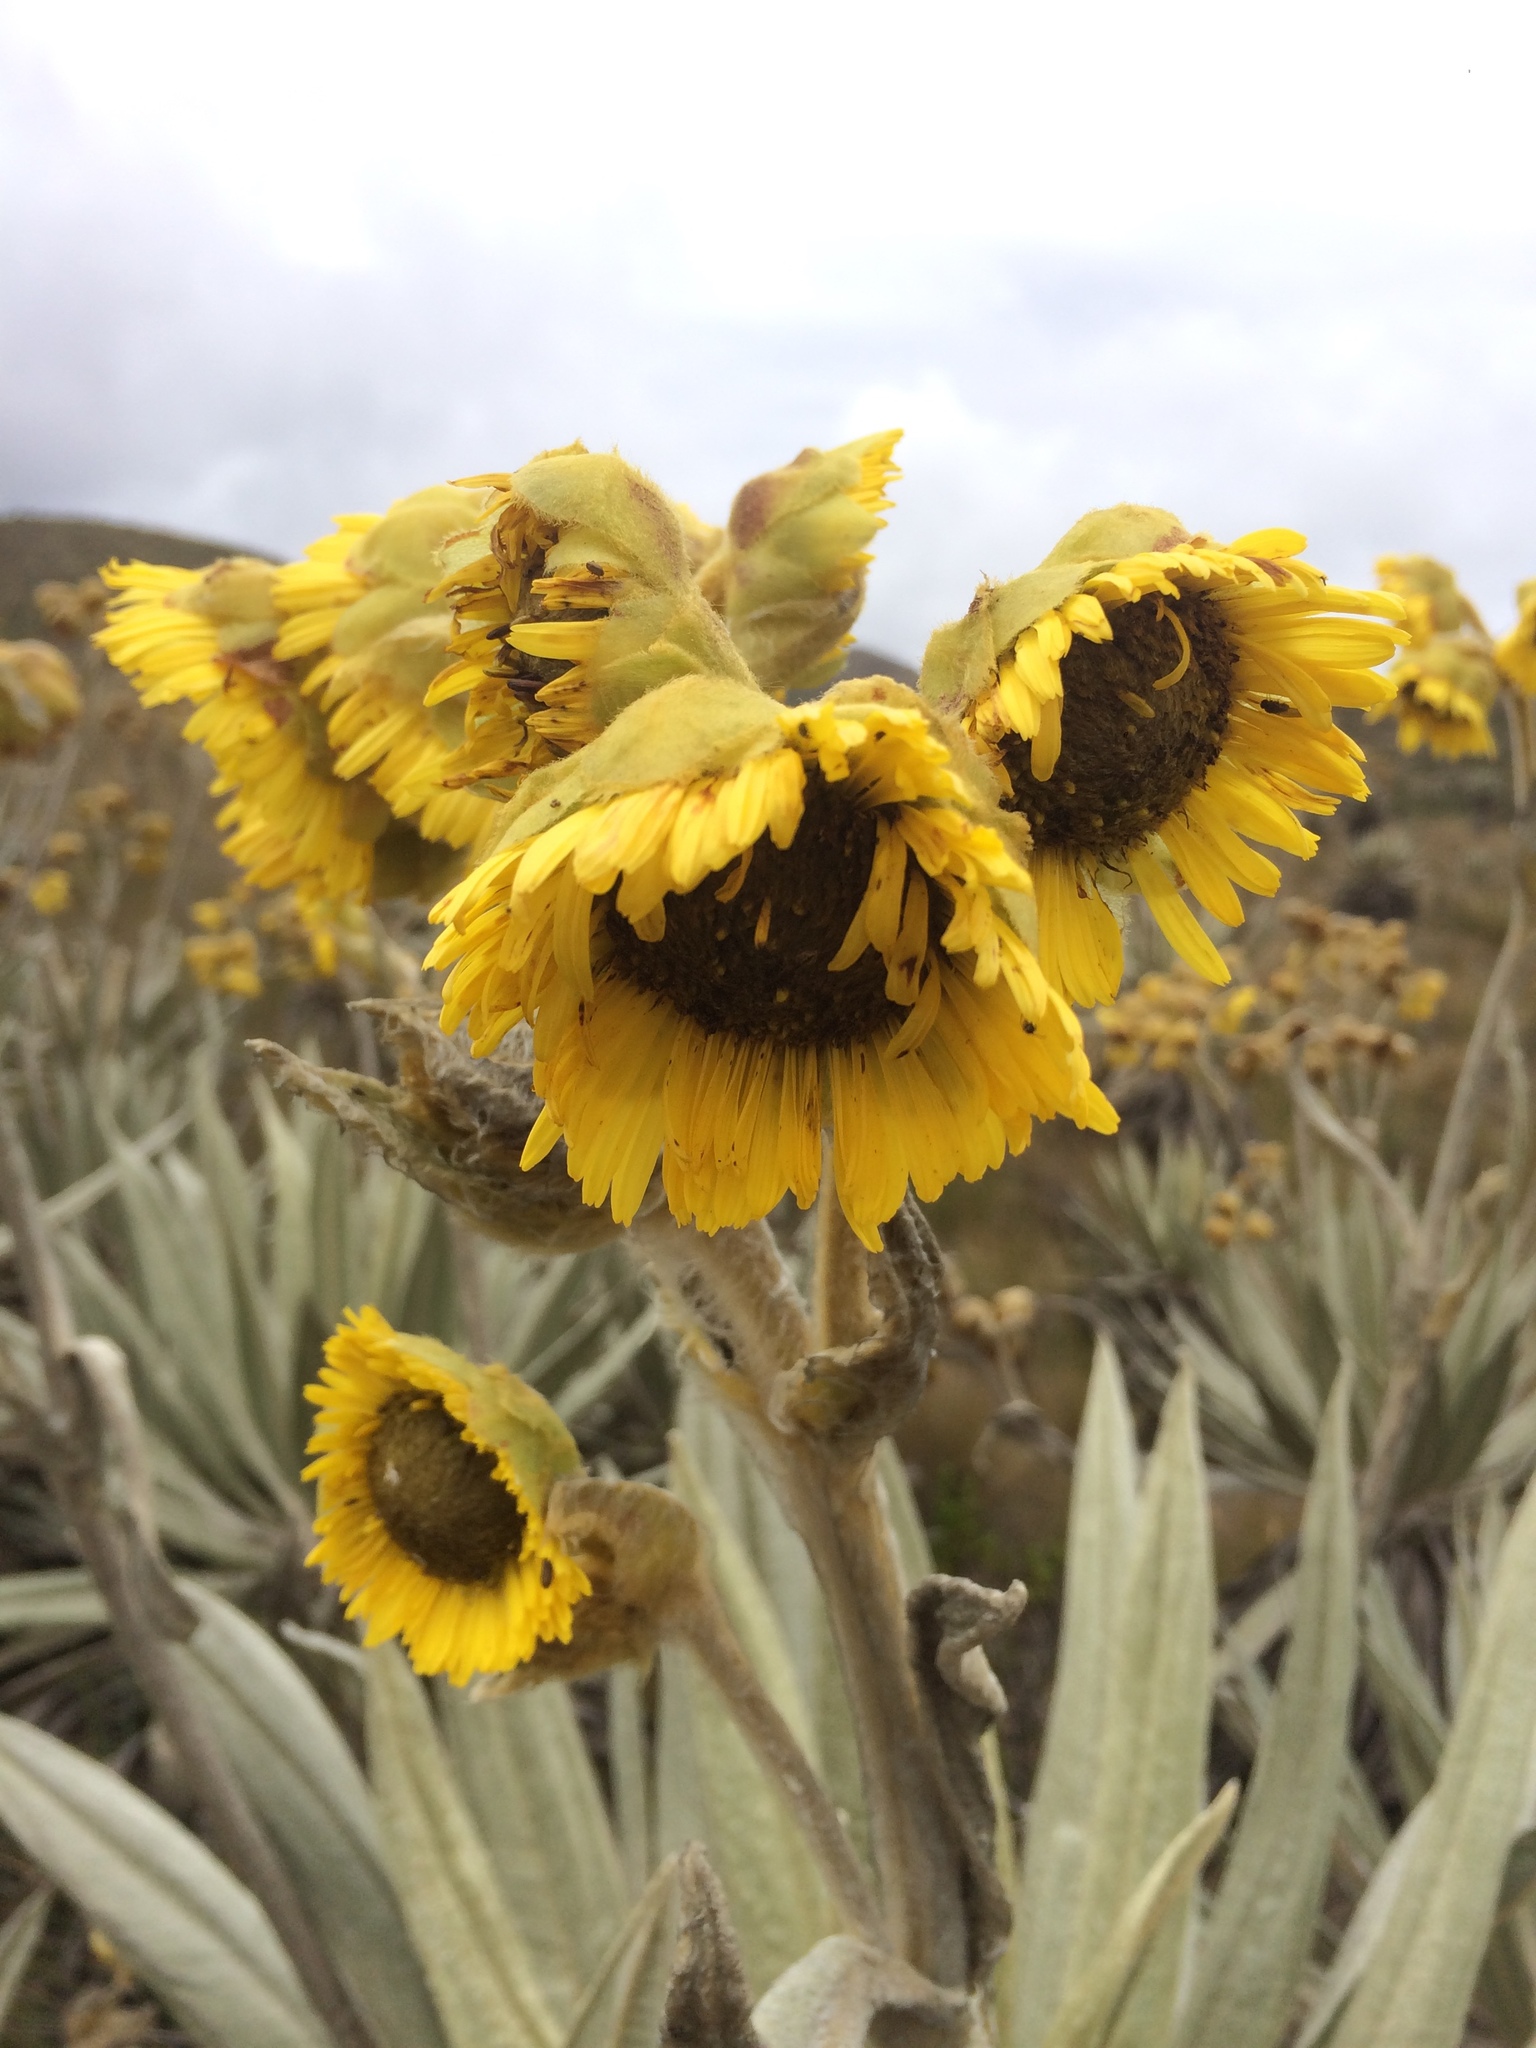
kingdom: Plantae
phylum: Tracheophyta
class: Magnoliopsida
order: Asterales
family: Asteraceae
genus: Espeletia
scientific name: Espeletia grandiflora
